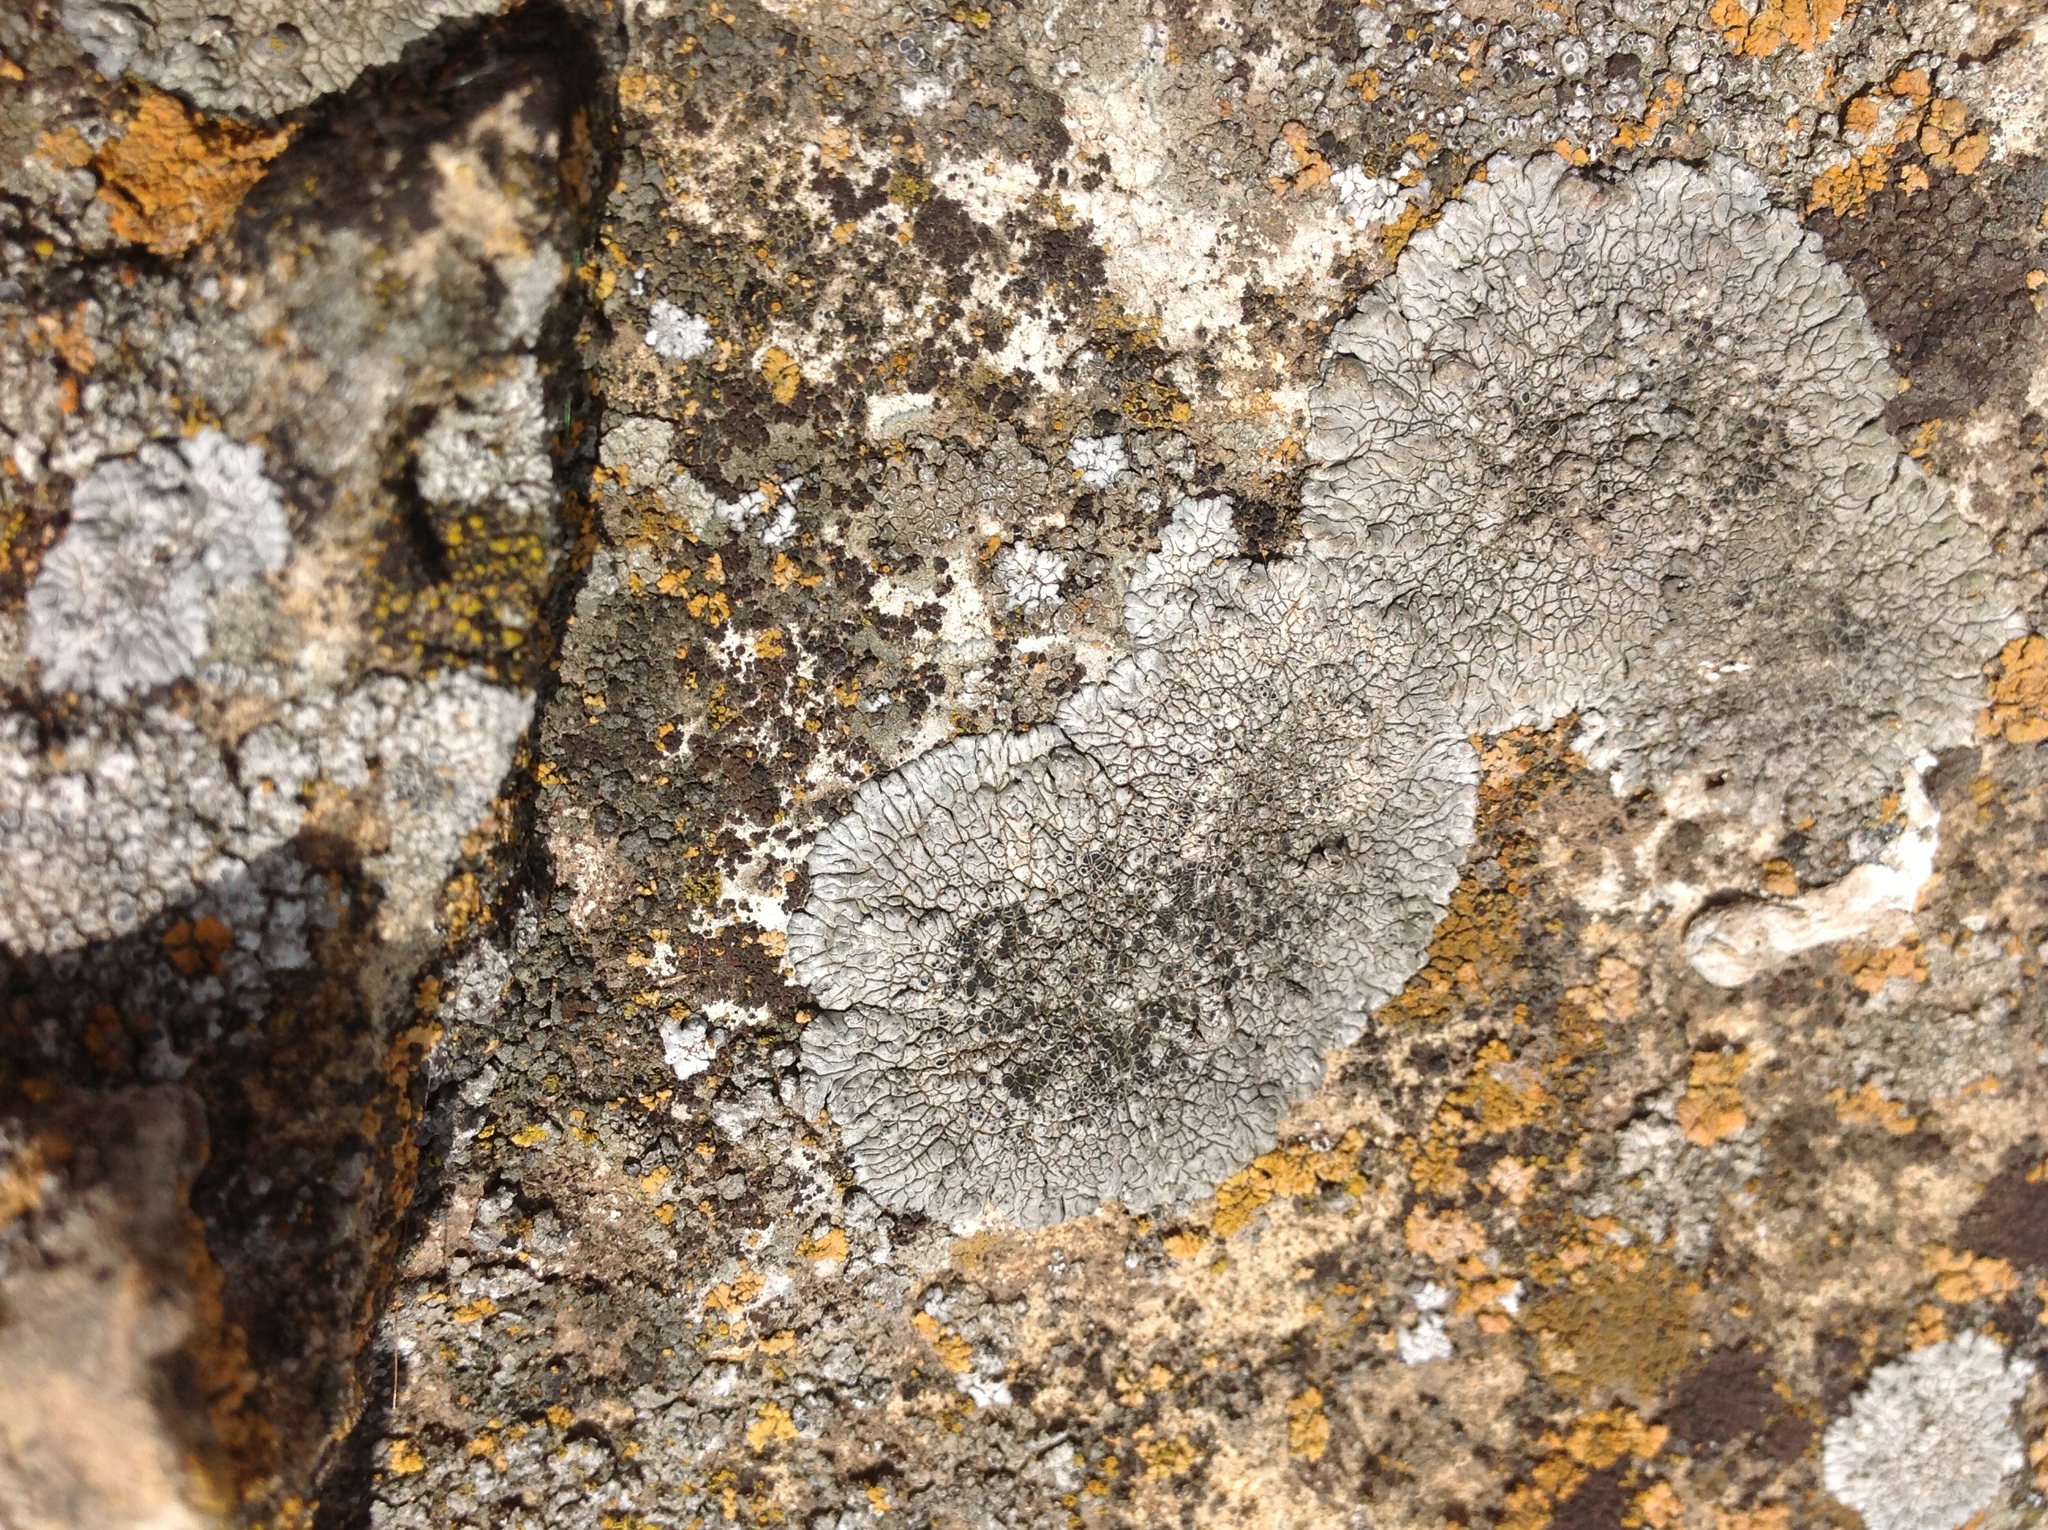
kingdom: Fungi
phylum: Ascomycota
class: Lecanoromycetes
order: Pertusariales
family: Megasporaceae
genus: Lobothallia
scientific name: Lobothallia radiosa
